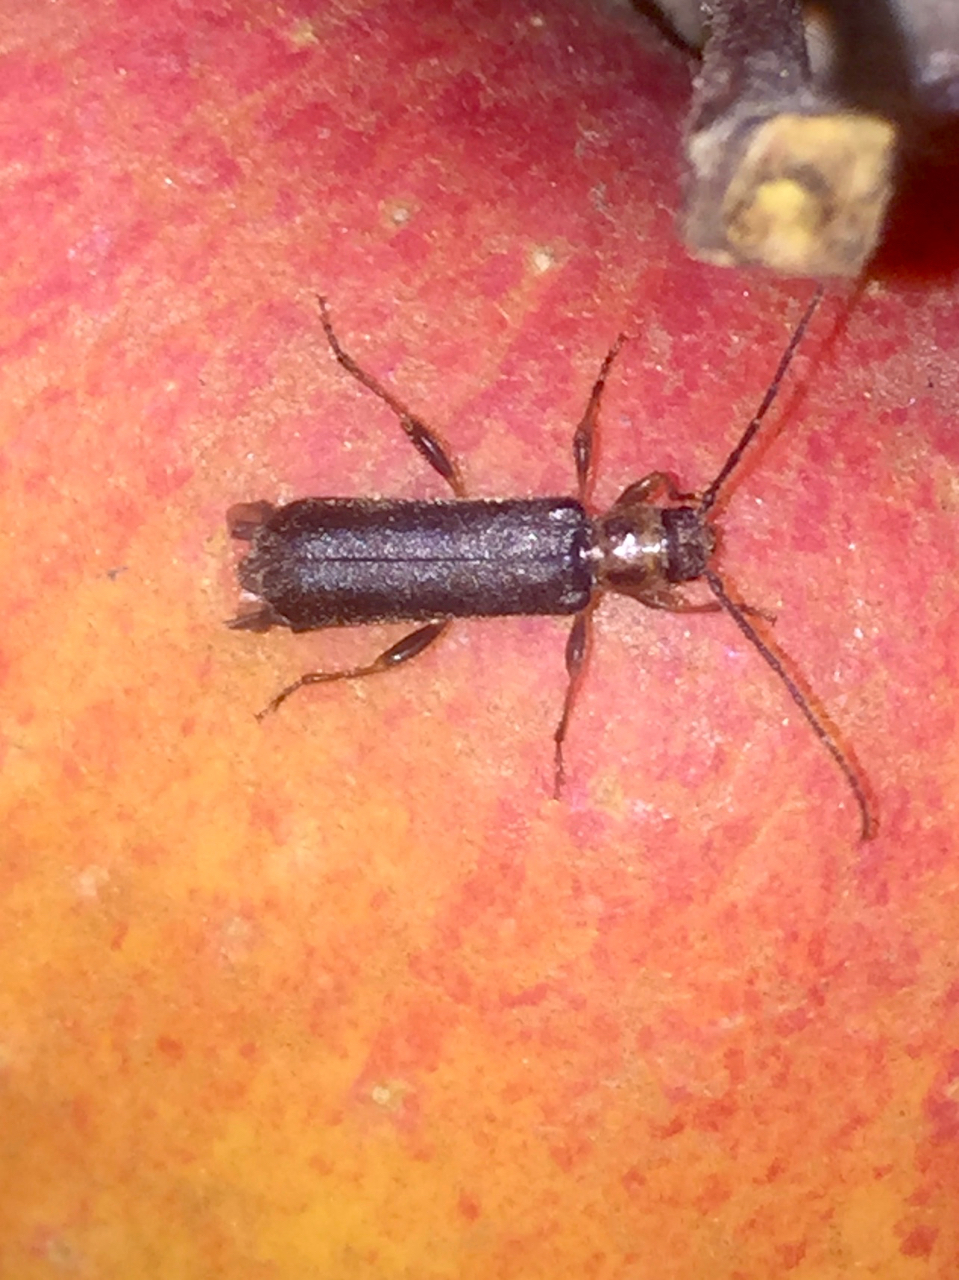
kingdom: Animalia
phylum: Arthropoda
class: Insecta
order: Coleoptera
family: Cerambycidae
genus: Poecilium
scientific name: Poecilium lividum
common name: Long-horned beetle
